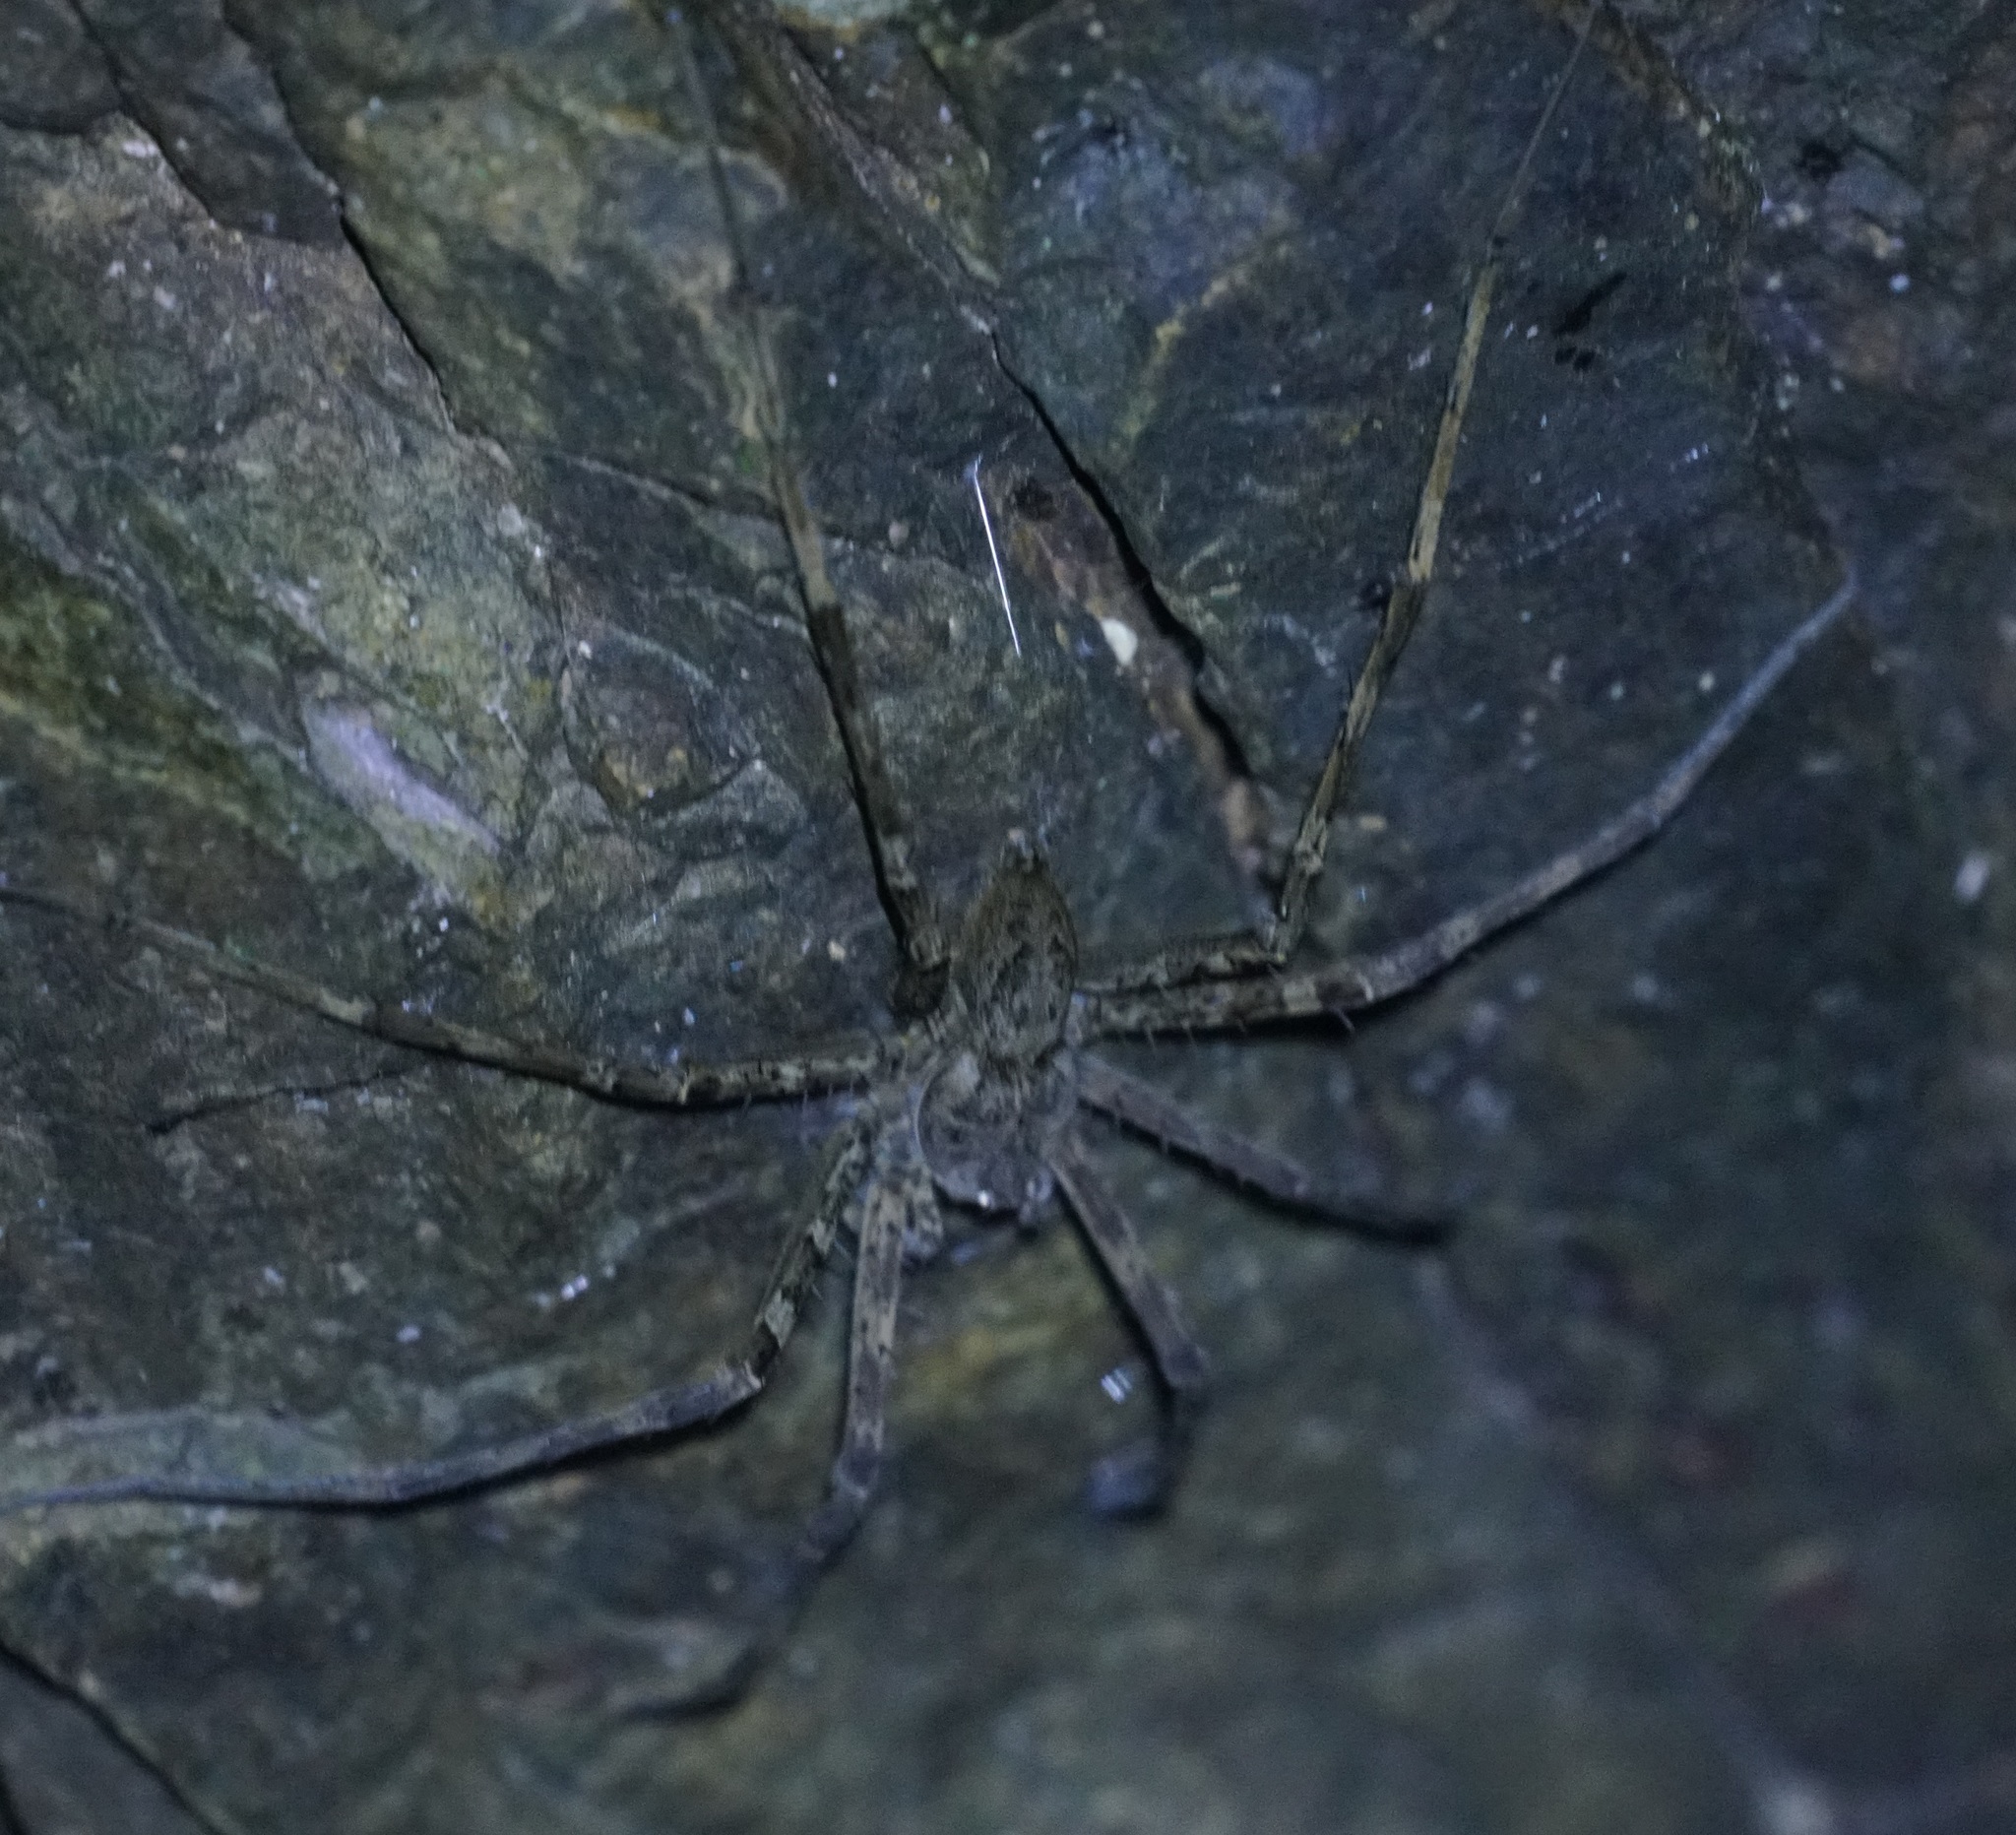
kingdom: Animalia
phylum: Arthropoda
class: Arachnida
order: Araneae
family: Pisauridae
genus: Megadolomedes
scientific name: Megadolomedes trux
